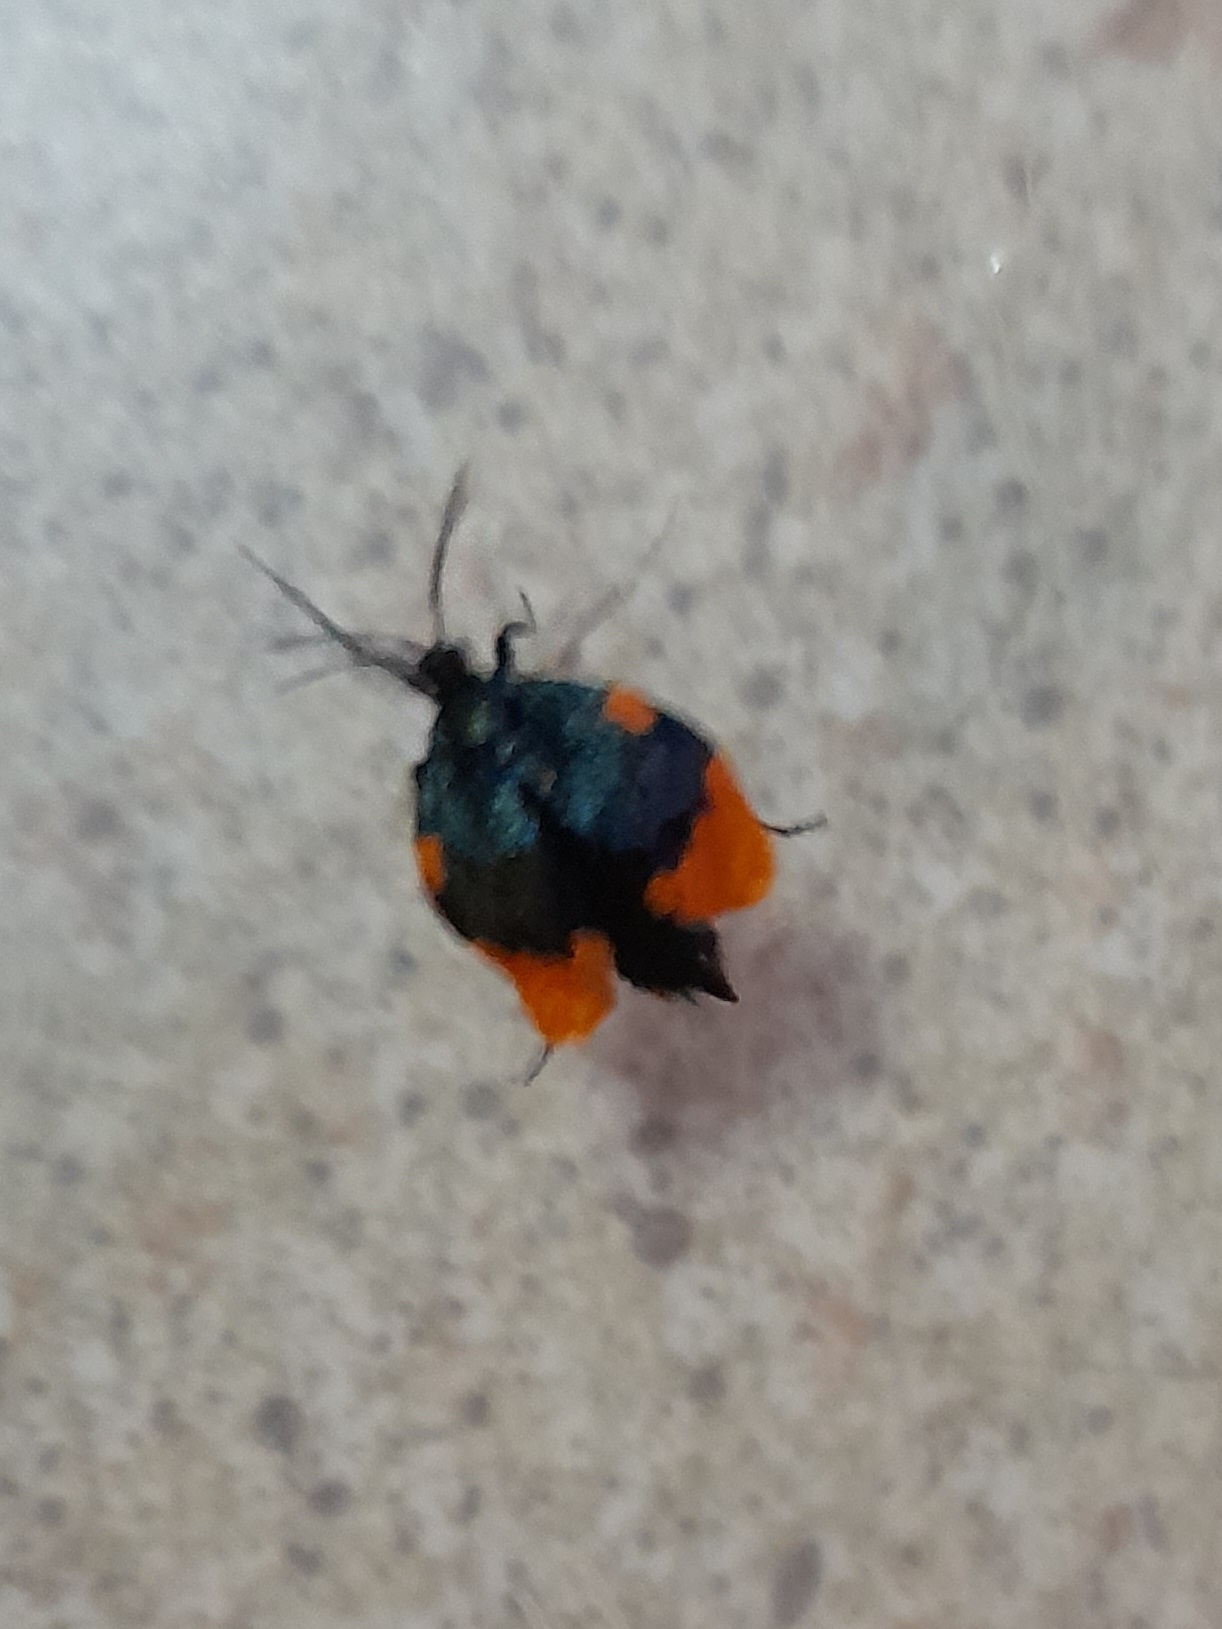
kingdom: Animalia
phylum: Arthropoda
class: Insecta
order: Lepidoptera
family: Psychidae
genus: Cebysa
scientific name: Cebysa leucotelus
